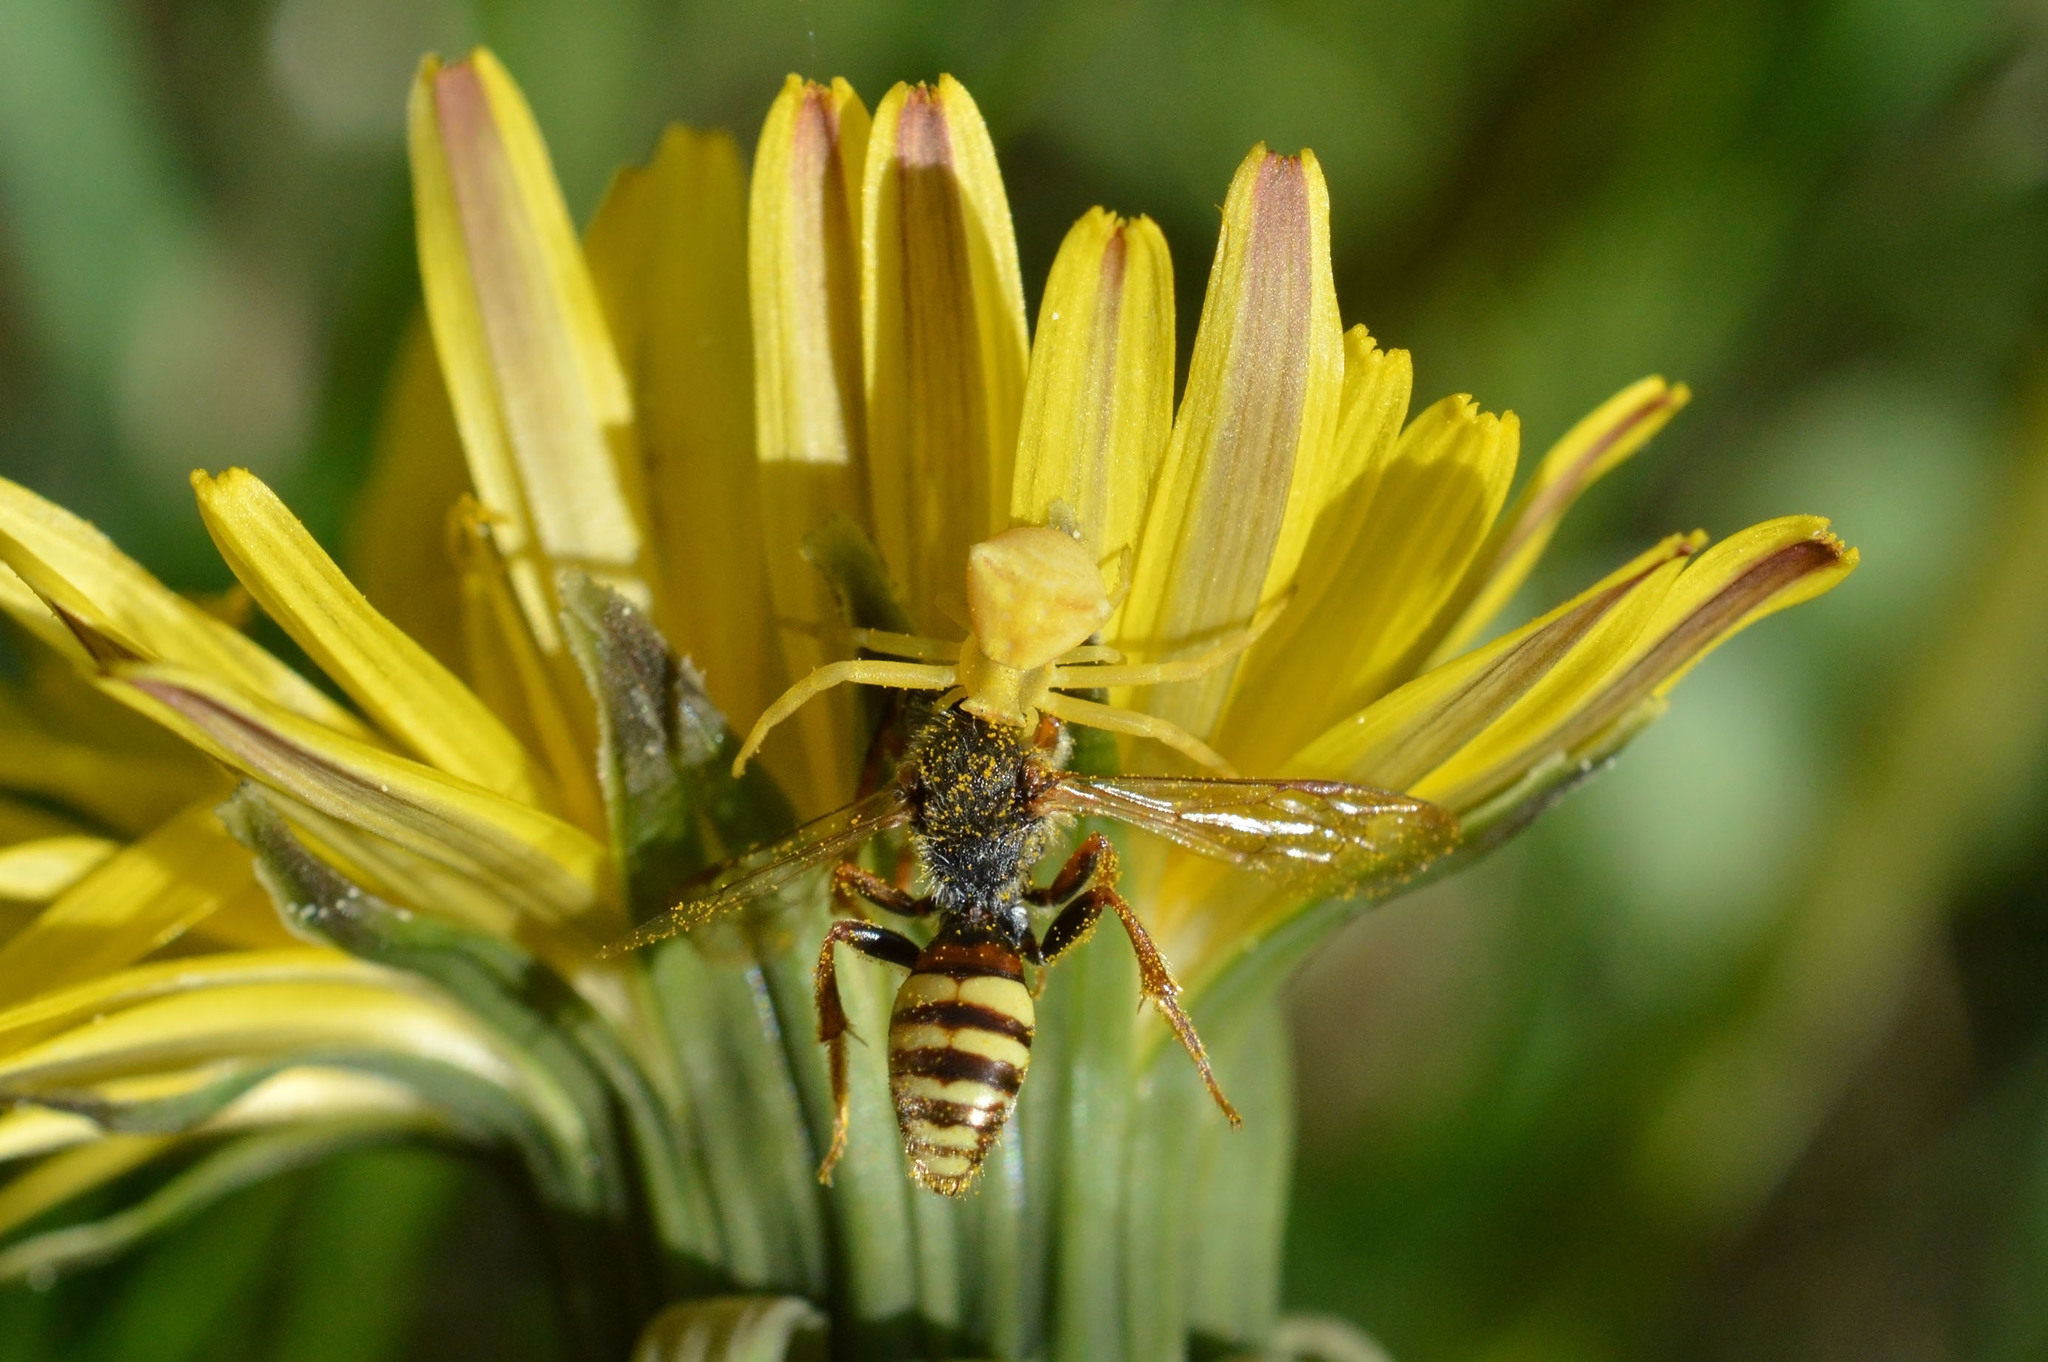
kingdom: Animalia
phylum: Arthropoda
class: Arachnida
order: Araneae
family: Thomisidae
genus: Thomisus
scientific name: Thomisus onustus
